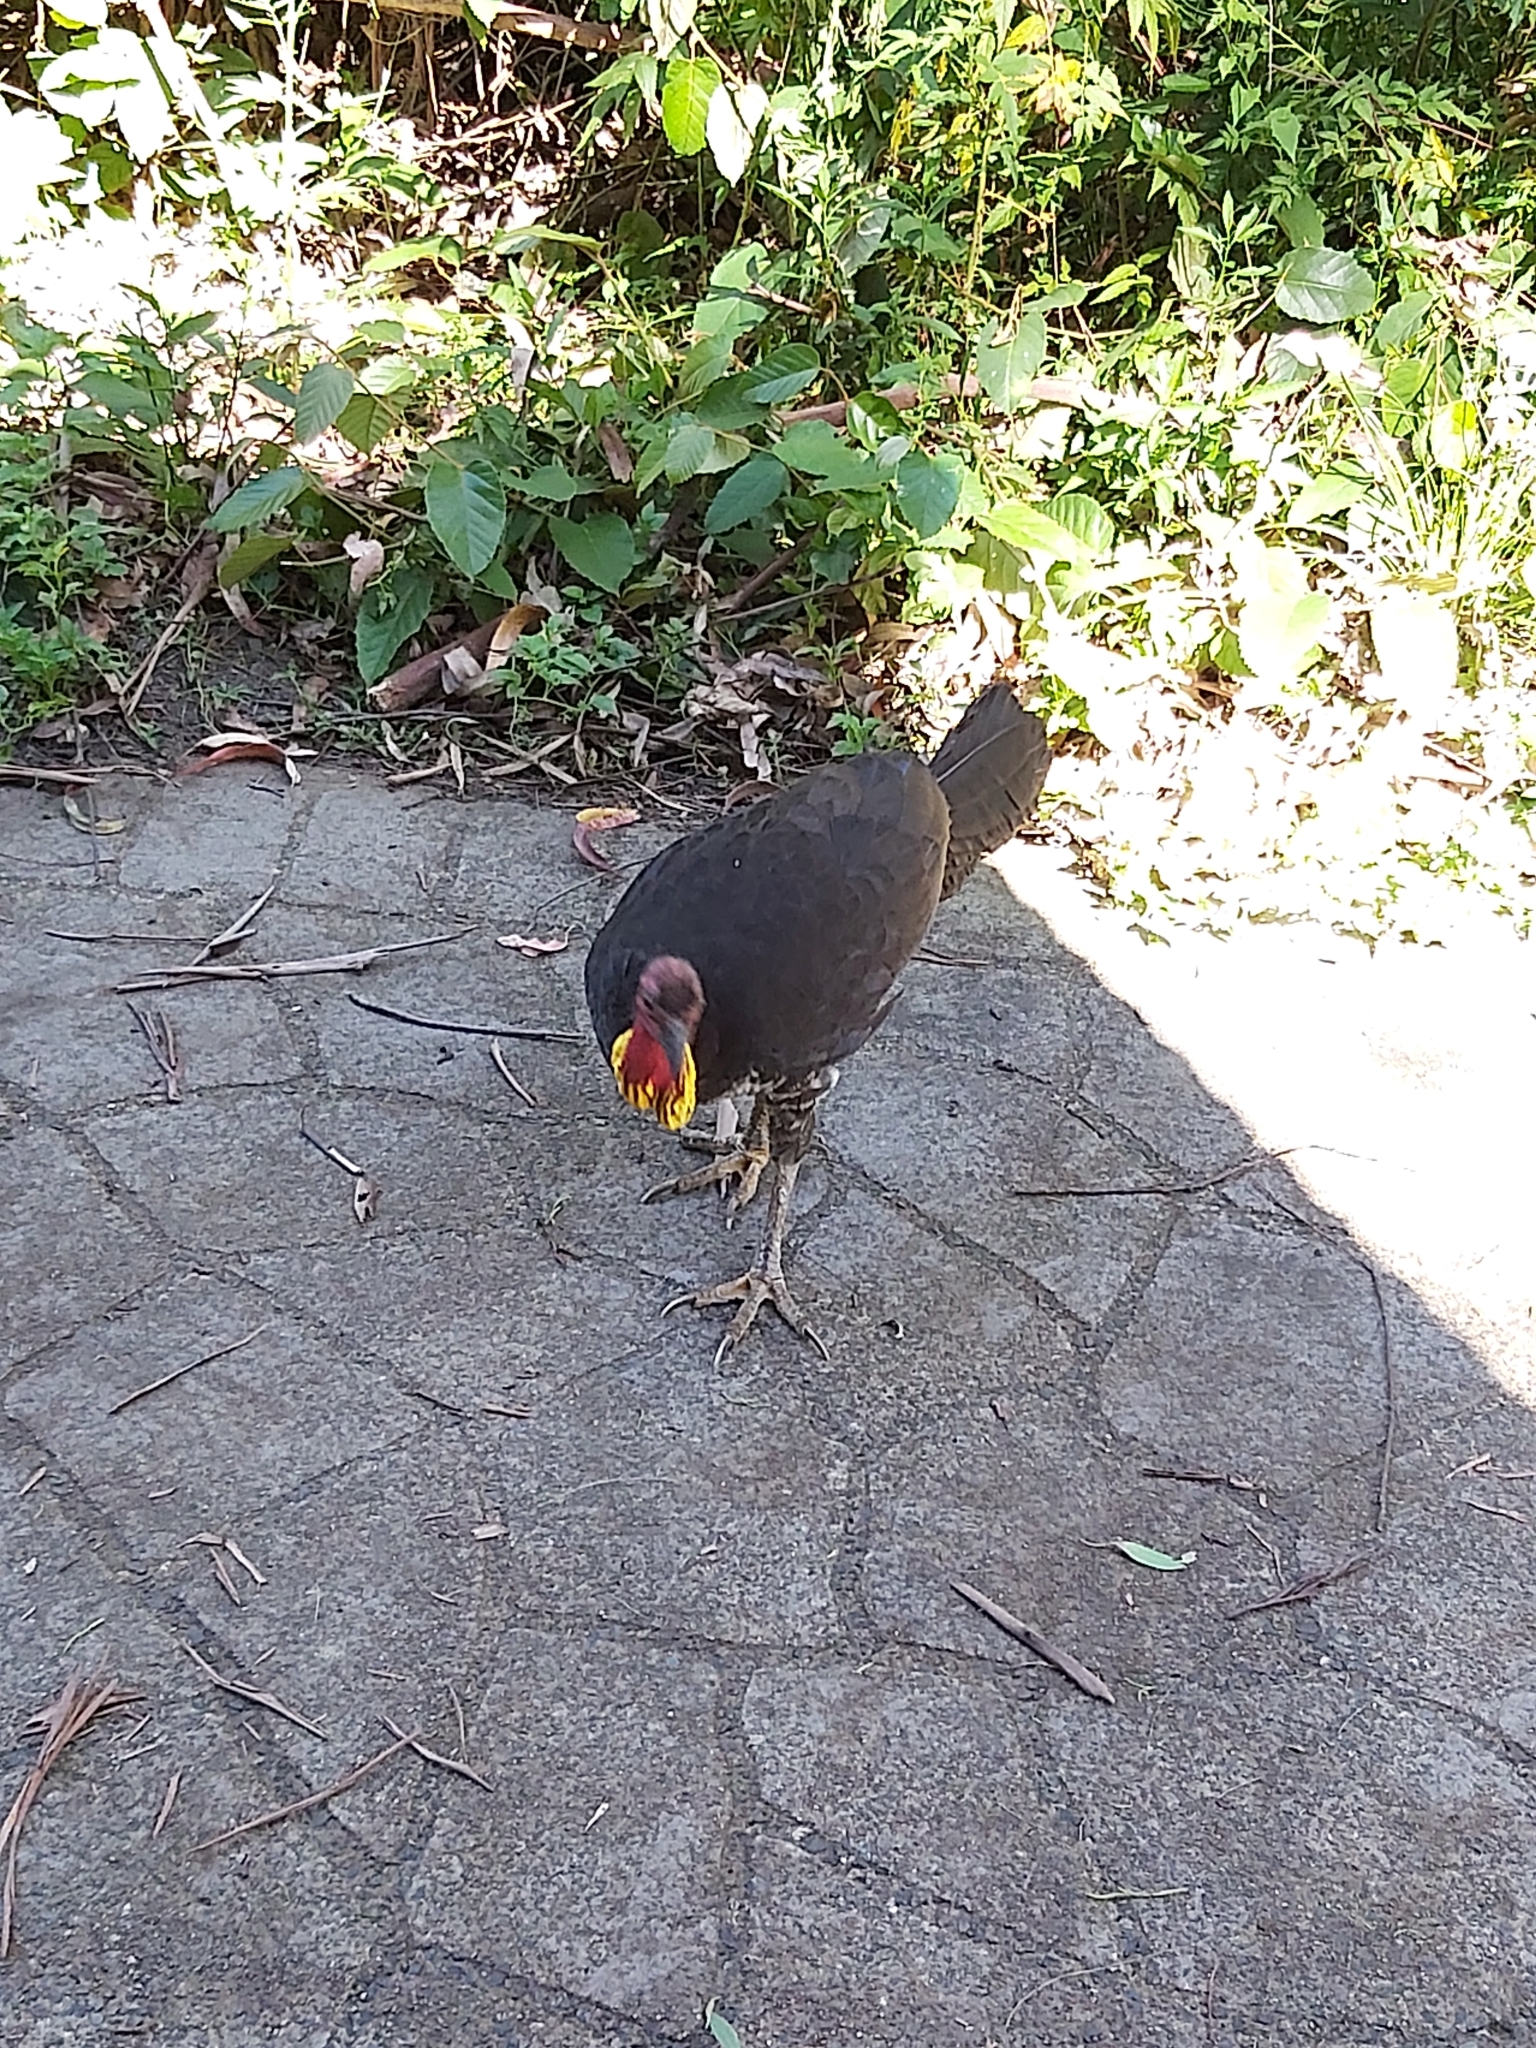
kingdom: Animalia
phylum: Chordata
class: Aves
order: Galliformes
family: Megapodiidae
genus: Alectura
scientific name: Alectura lathami
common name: Australian brushturkey
